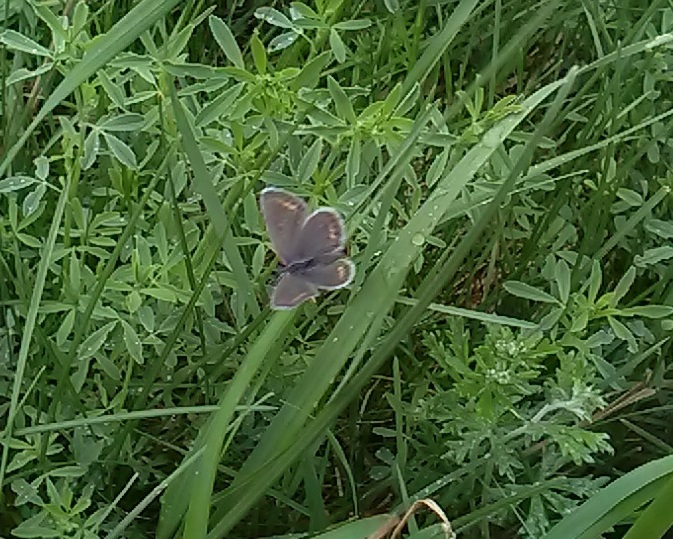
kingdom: Animalia
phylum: Arthropoda
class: Insecta
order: Lepidoptera
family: Lycaenidae
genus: Plebejus
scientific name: Plebejus argus
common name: Silver-studded blue
